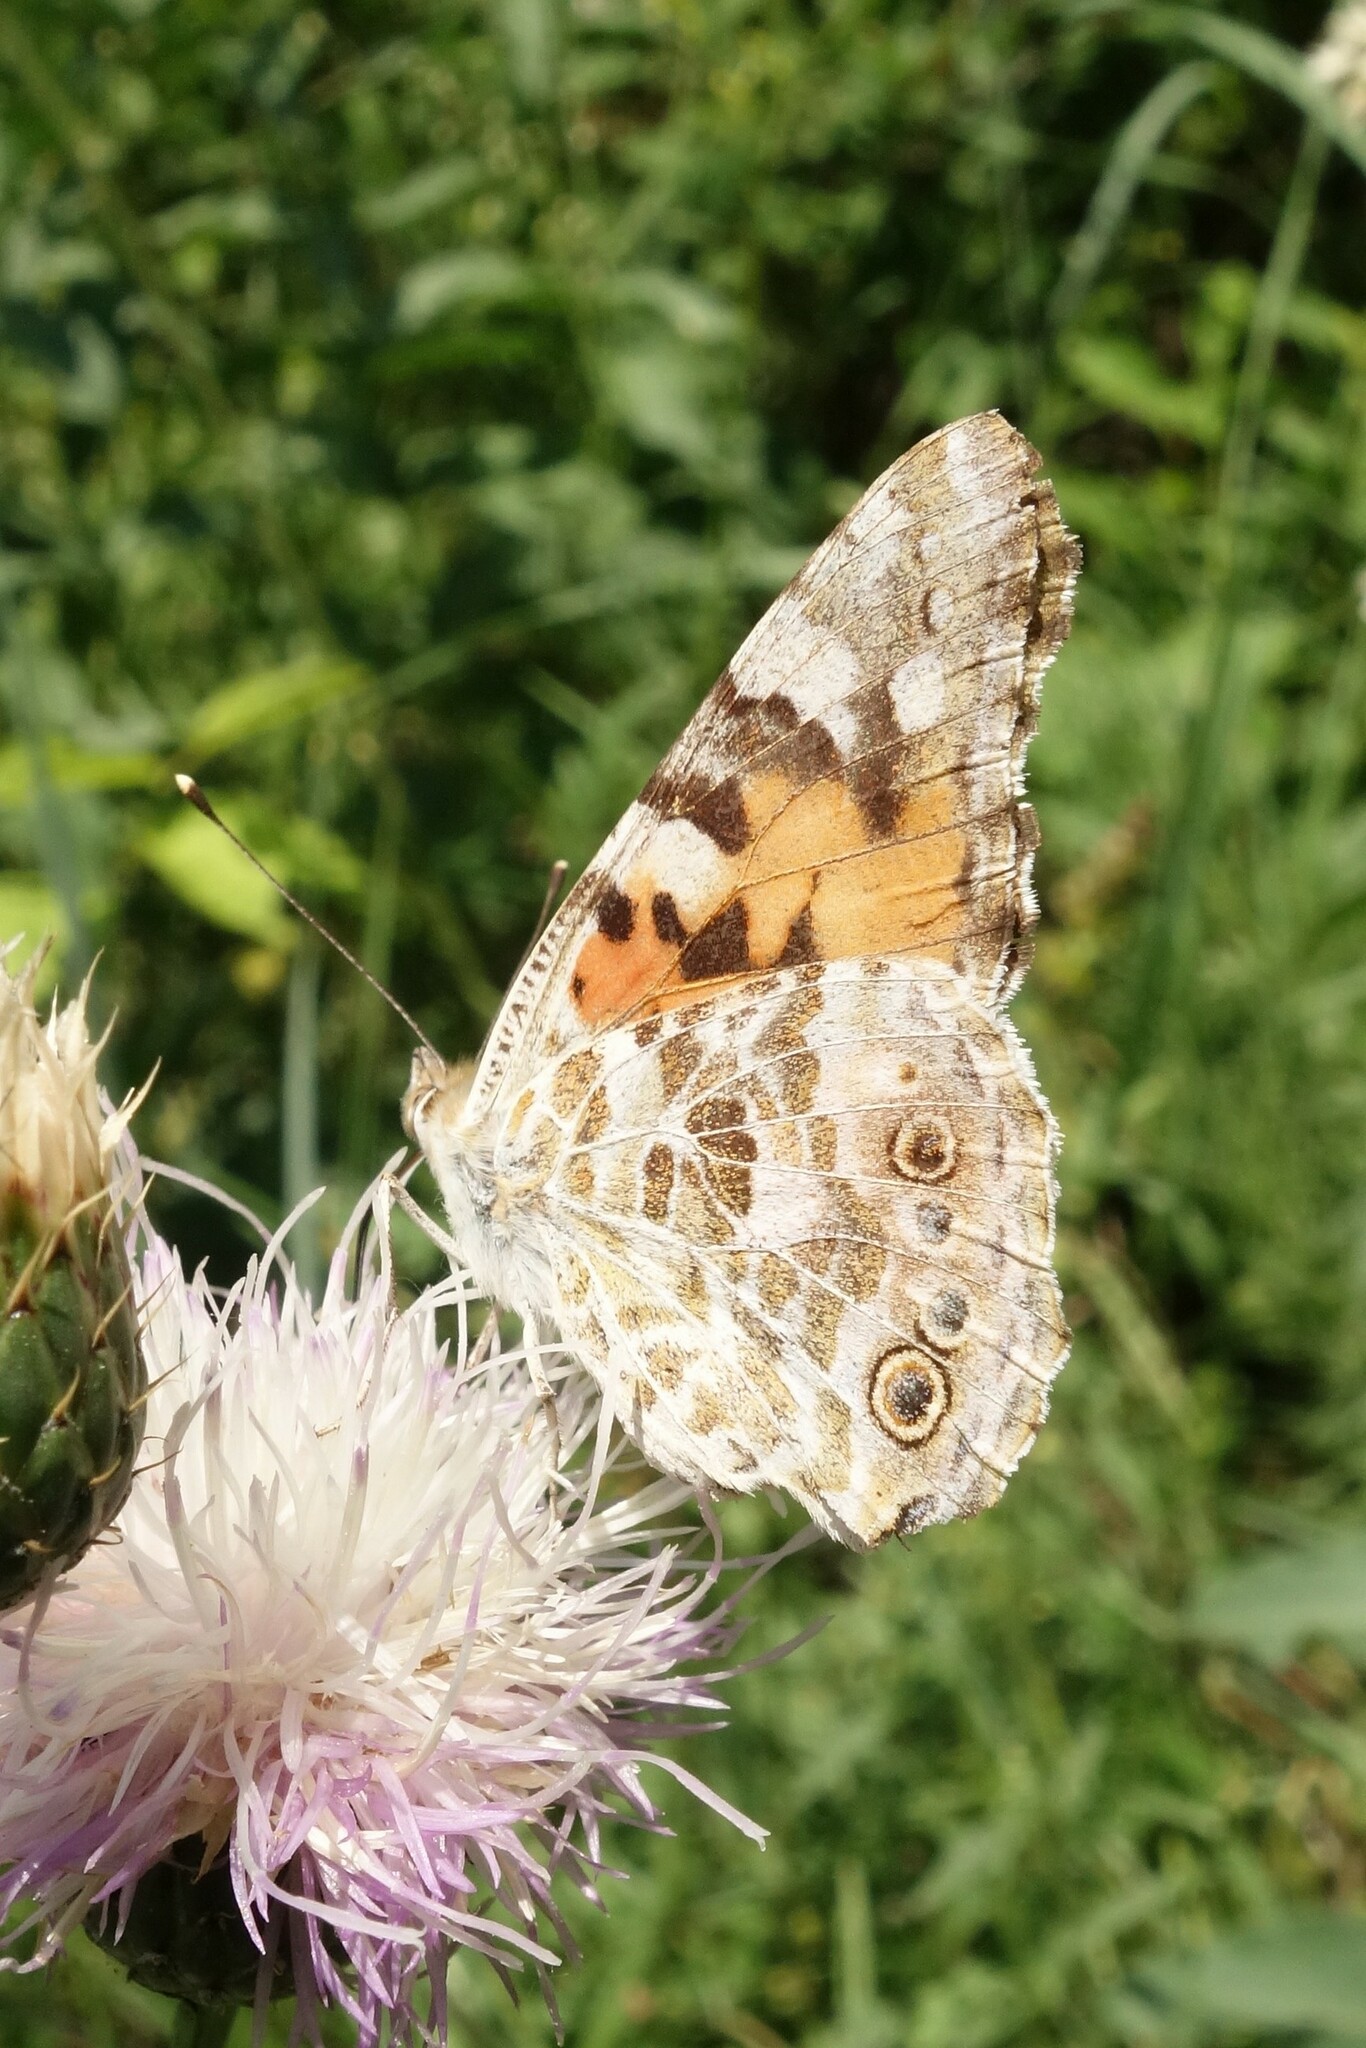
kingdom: Animalia
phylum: Arthropoda
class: Insecta
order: Lepidoptera
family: Nymphalidae
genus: Vanessa
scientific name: Vanessa cardui
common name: Painted lady
